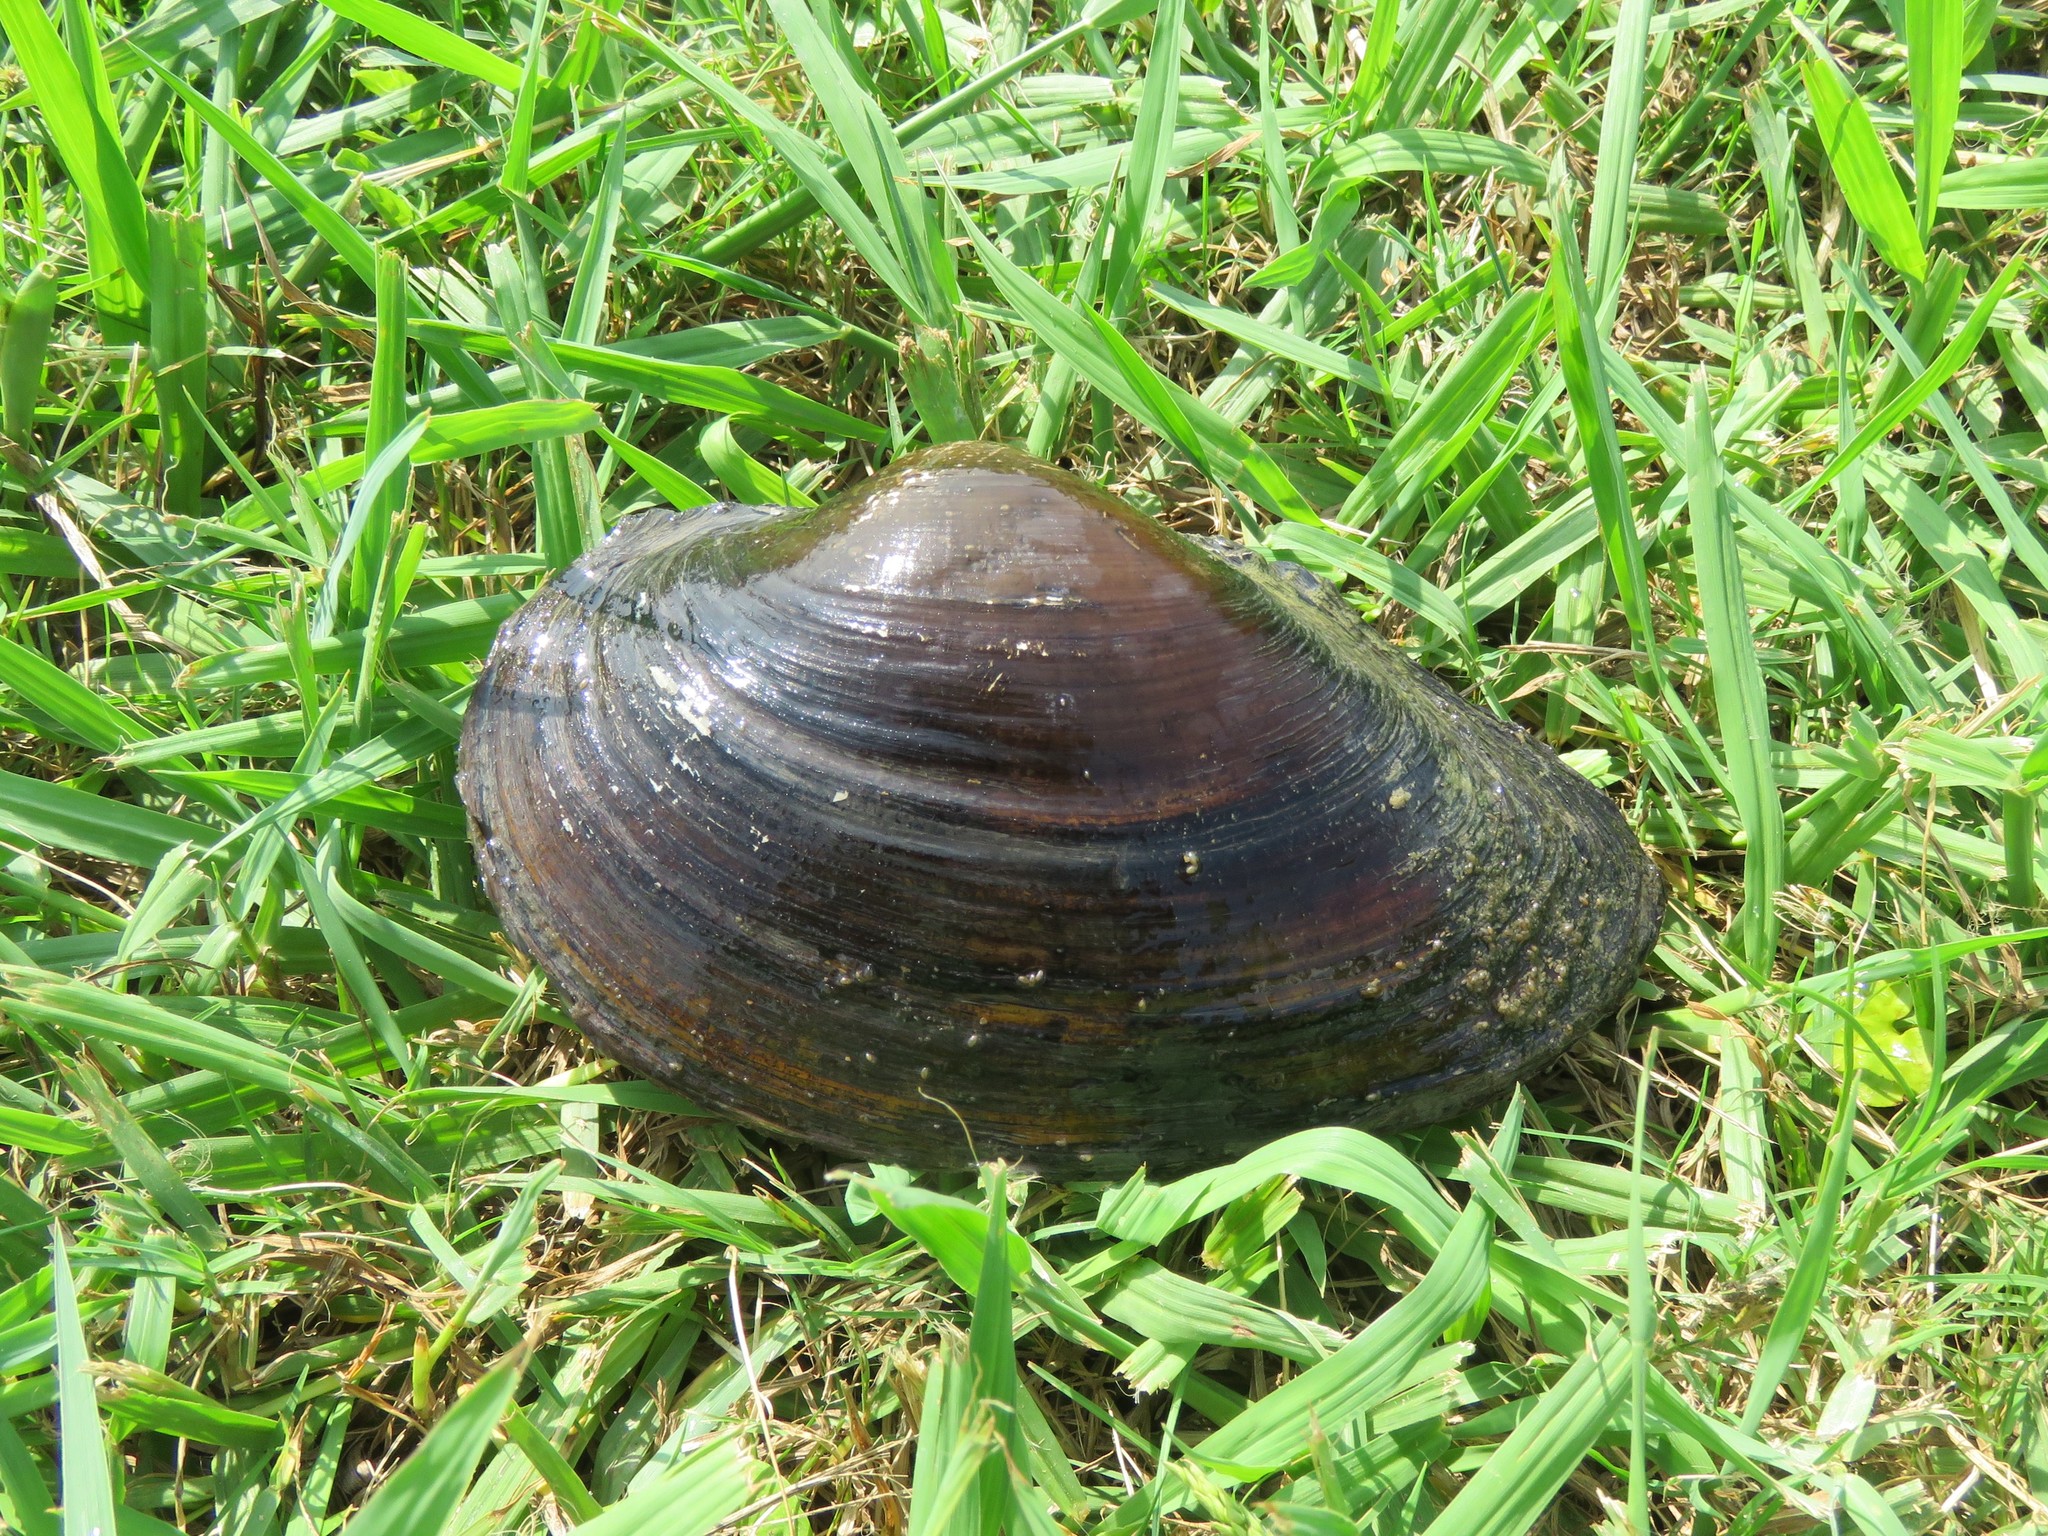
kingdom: Animalia
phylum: Mollusca
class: Bivalvia
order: Unionida
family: Unionidae
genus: Pyganodon
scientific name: Pyganodon grandis
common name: Giant floater
